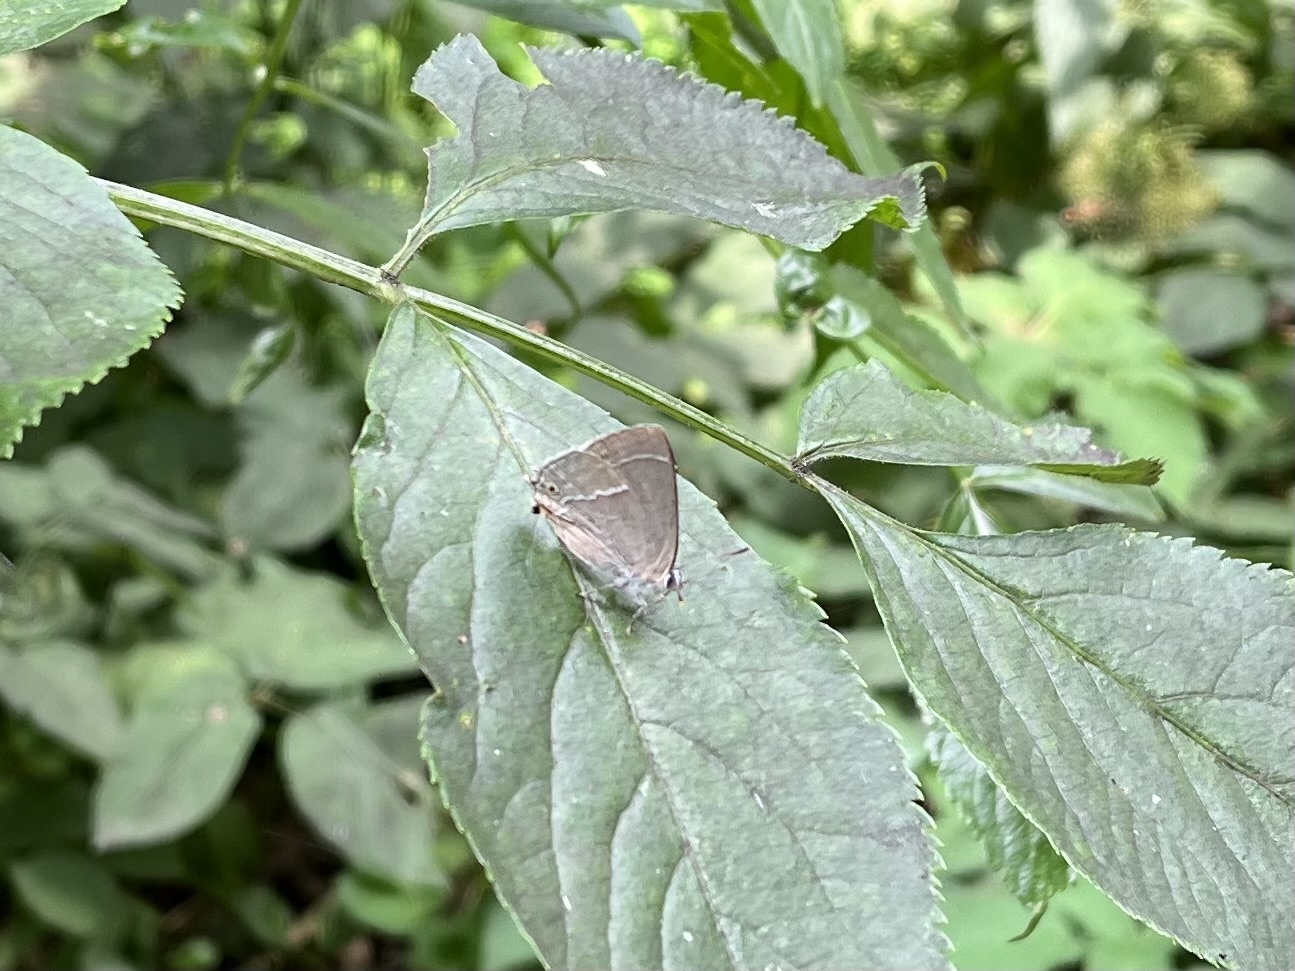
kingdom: Animalia
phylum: Arthropoda
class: Insecta
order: Lepidoptera
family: Lycaenidae
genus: Quercusia
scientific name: Quercusia quercus
